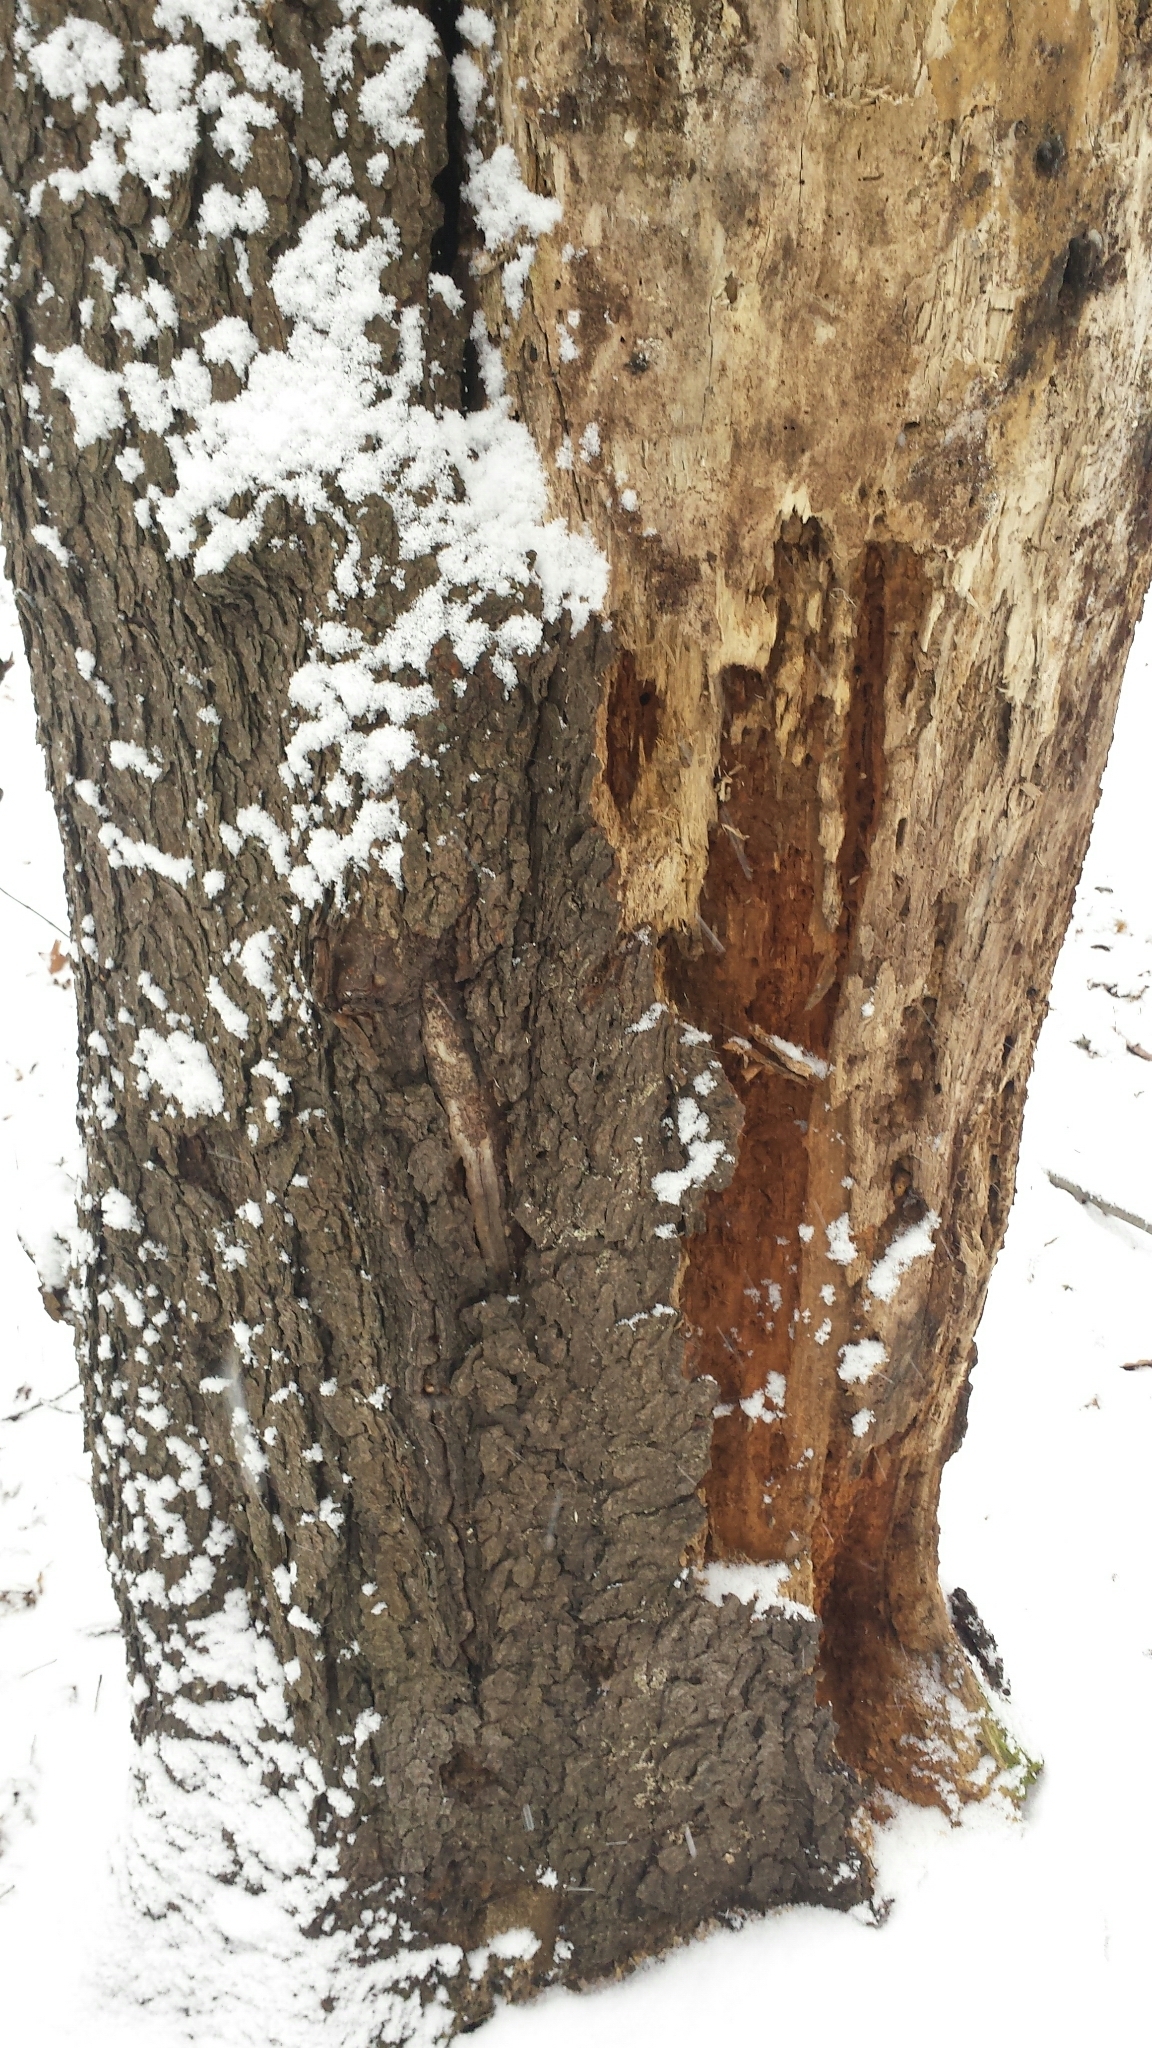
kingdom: Plantae
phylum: Tracheophyta
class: Magnoliopsida
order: Rosales
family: Rosaceae
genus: Prunus
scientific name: Prunus serotina
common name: Black cherry
